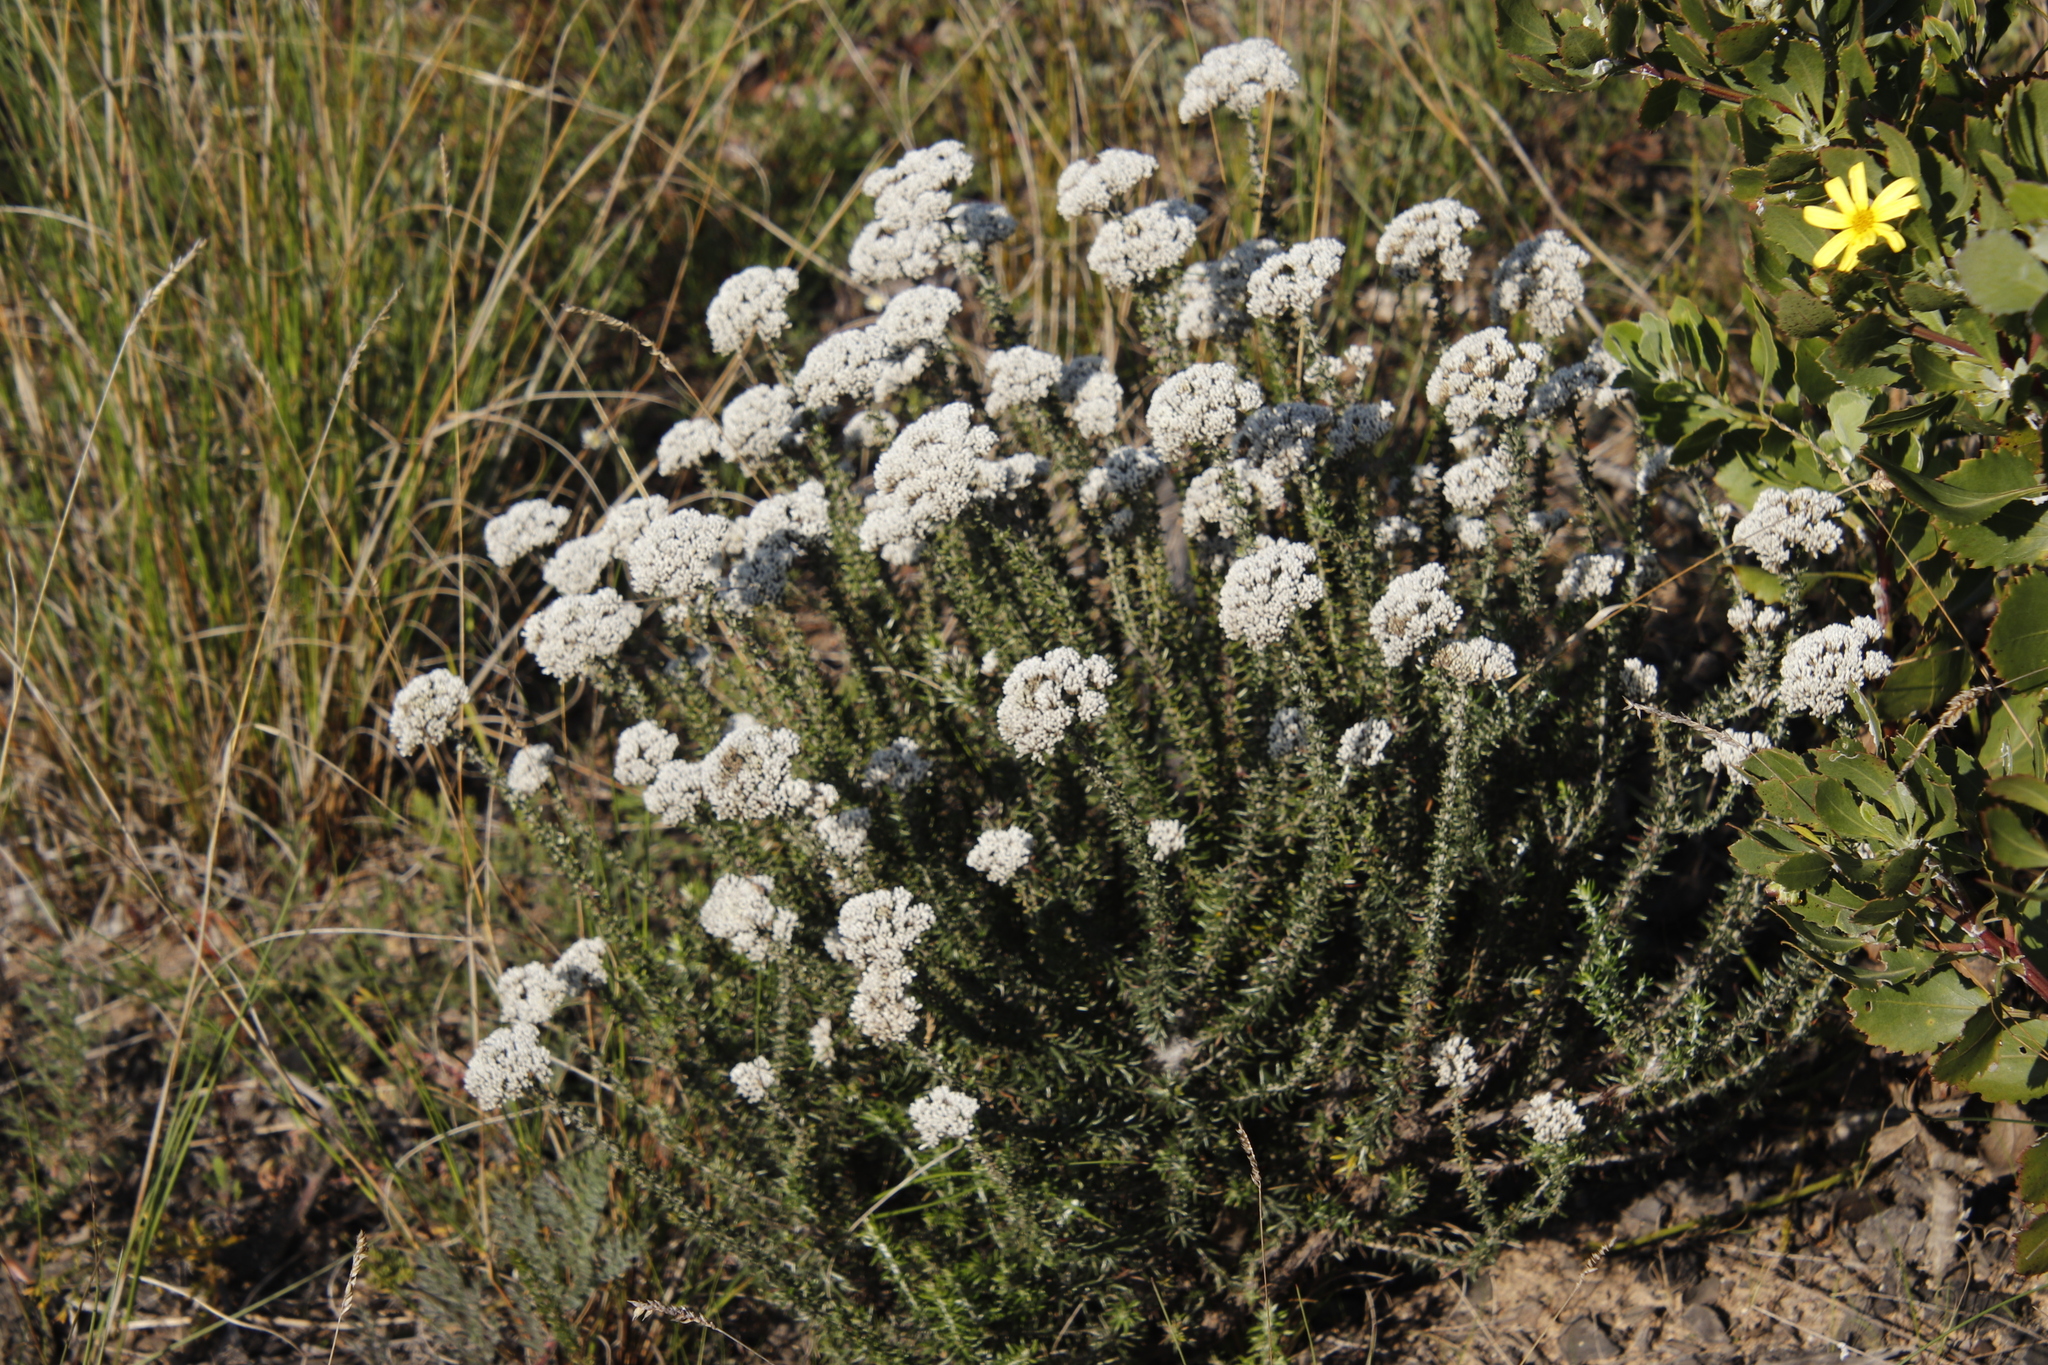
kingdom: Plantae
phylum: Tracheophyta
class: Magnoliopsida
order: Asterales
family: Asteraceae
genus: Metalasia
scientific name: Metalasia densa
